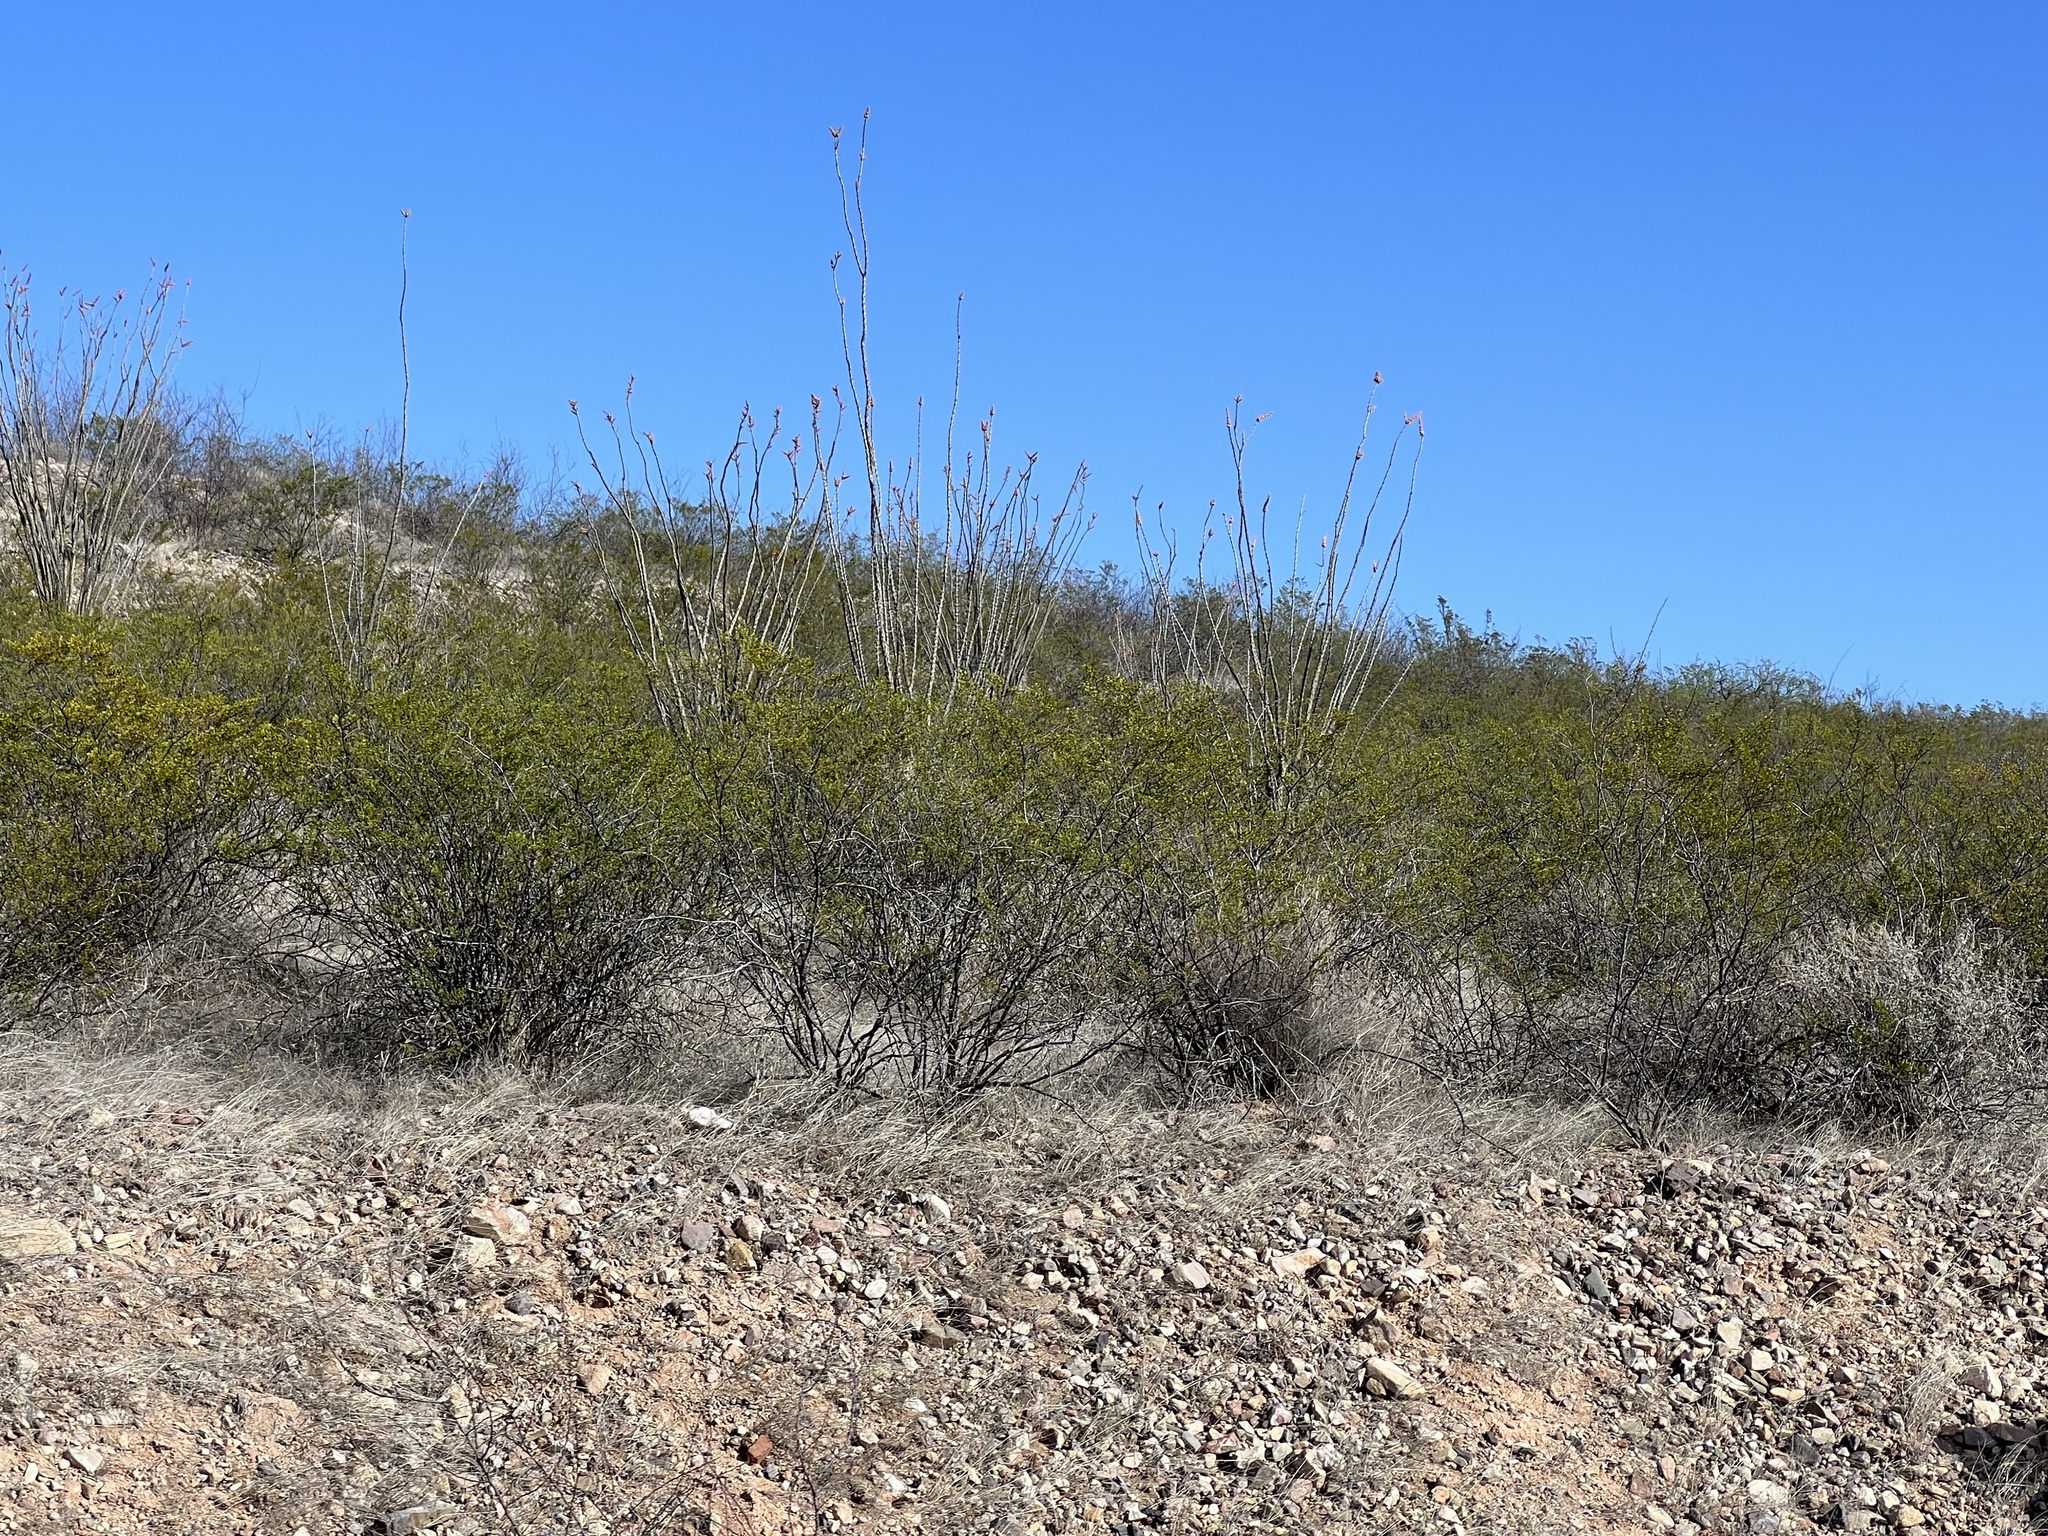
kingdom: Plantae
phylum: Tracheophyta
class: Magnoliopsida
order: Zygophyllales
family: Zygophyllaceae
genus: Larrea
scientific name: Larrea tridentata
